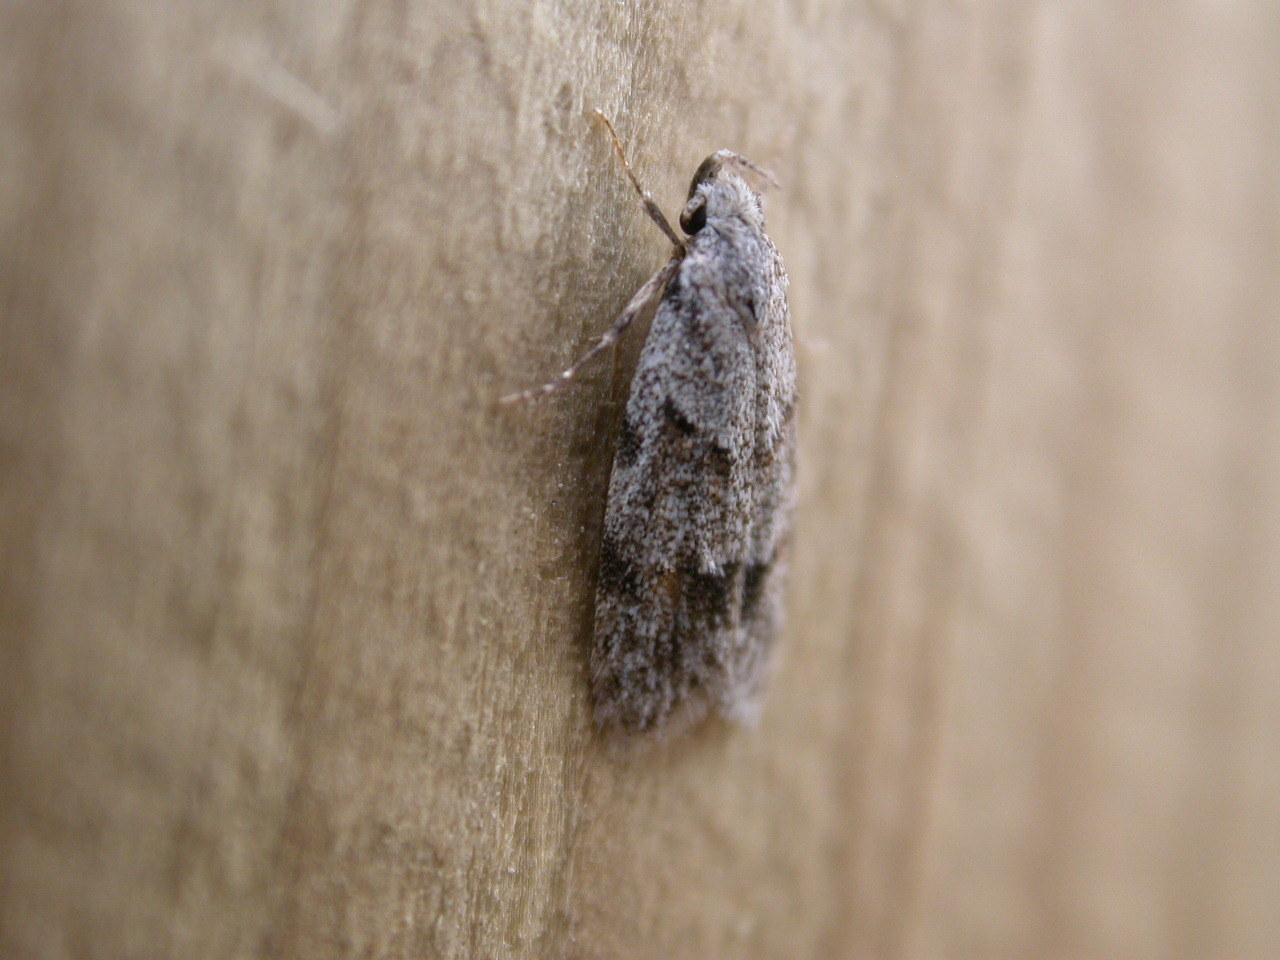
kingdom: Animalia
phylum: Arthropoda
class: Insecta
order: Lepidoptera
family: Autostichidae
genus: Symmoca
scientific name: Symmoca signatella
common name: Dockland obscure
